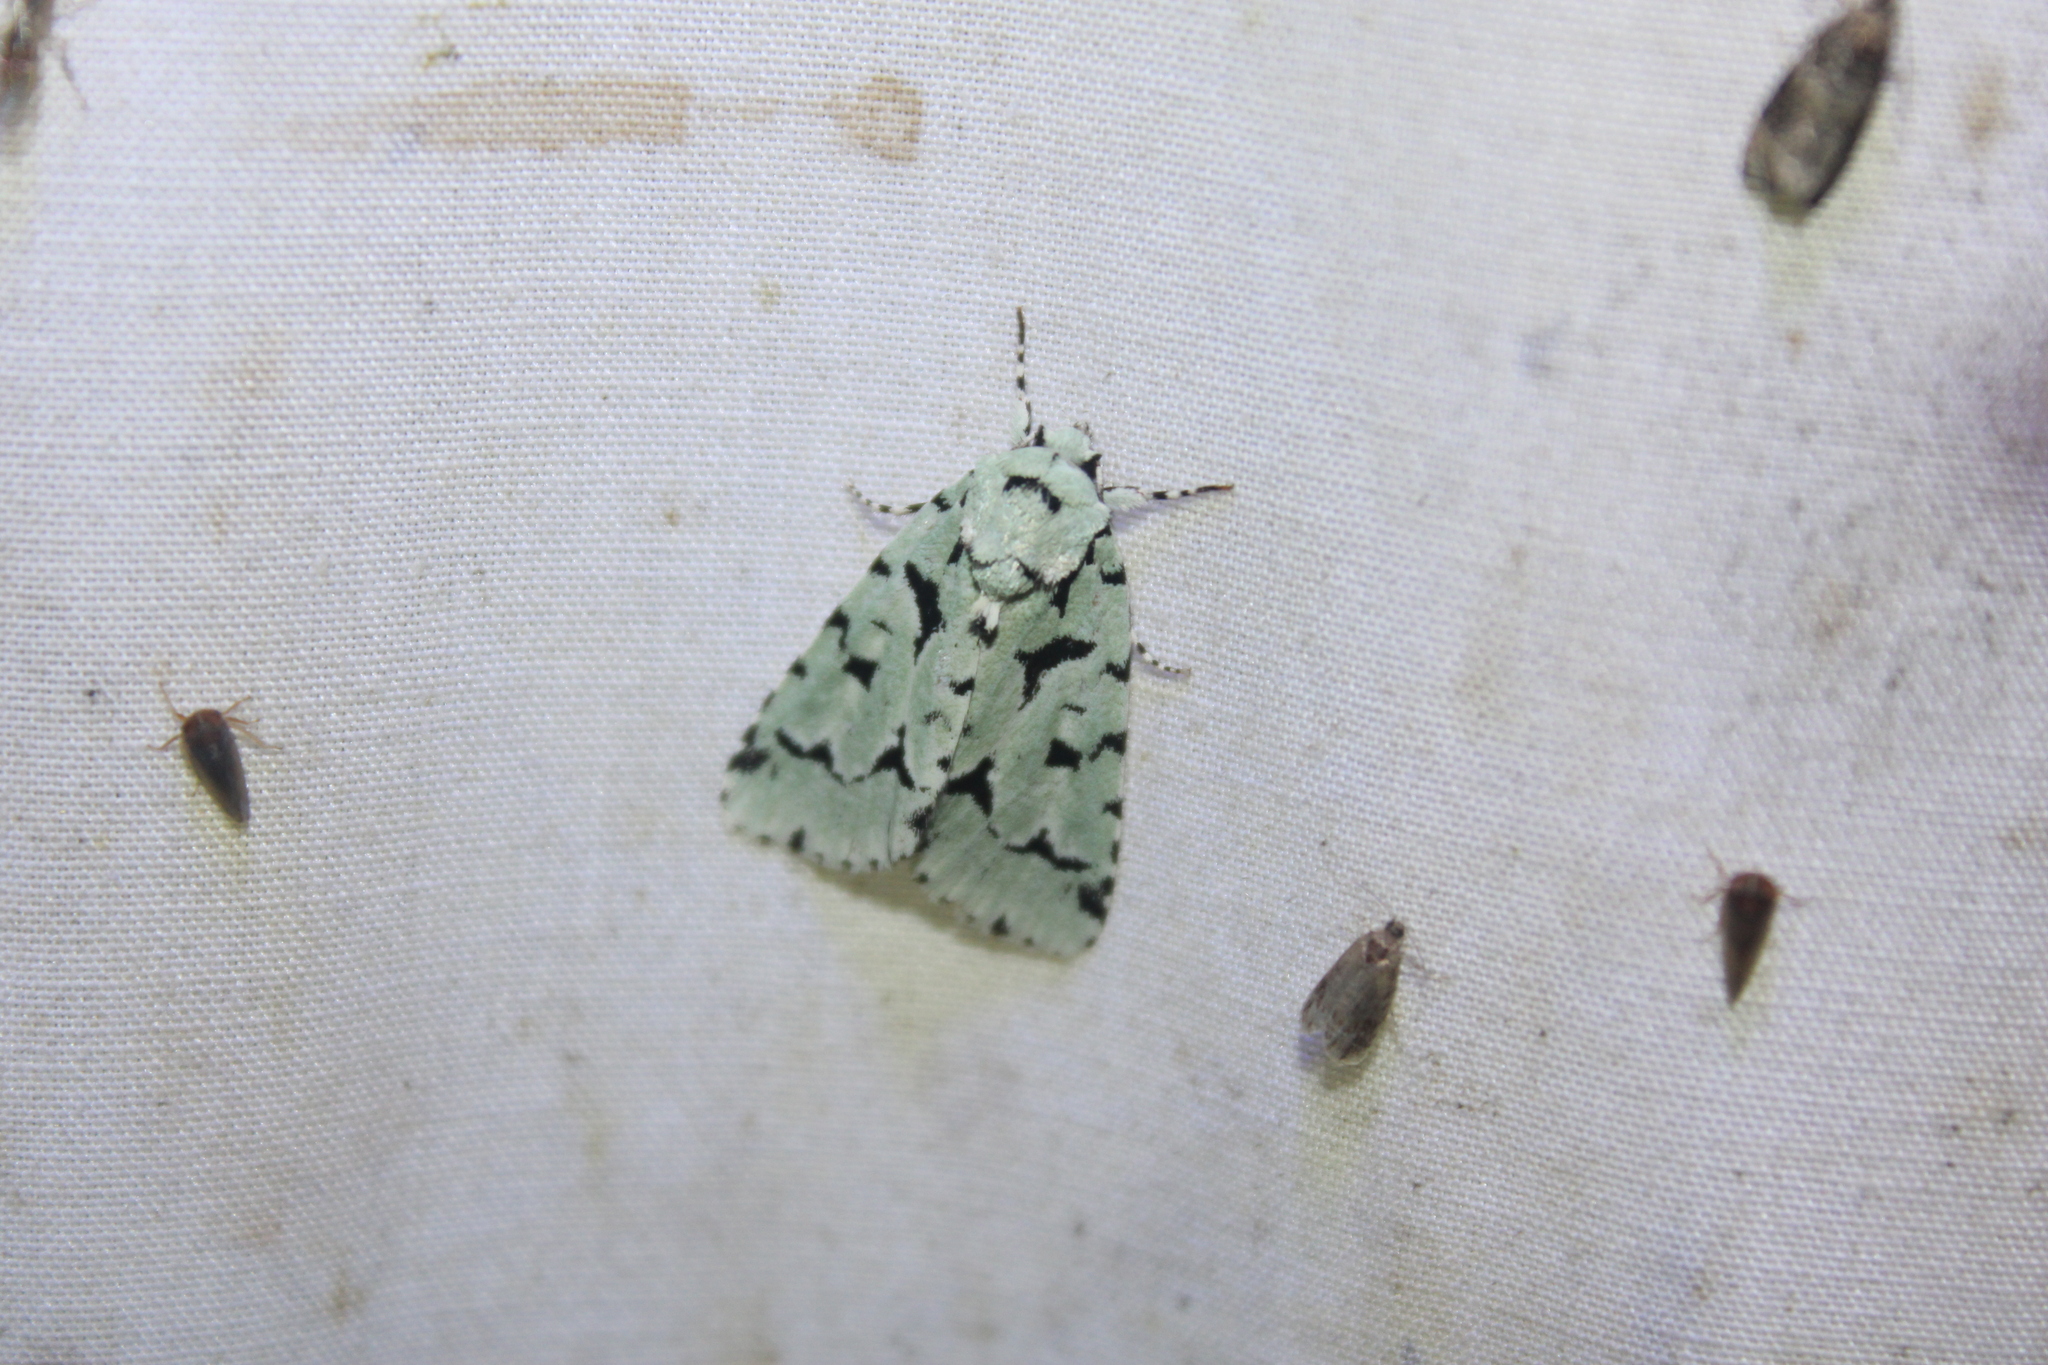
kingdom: Animalia
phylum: Arthropoda
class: Insecta
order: Lepidoptera
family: Noctuidae
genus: Acronicta
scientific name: Acronicta fallax
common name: Green marvel
